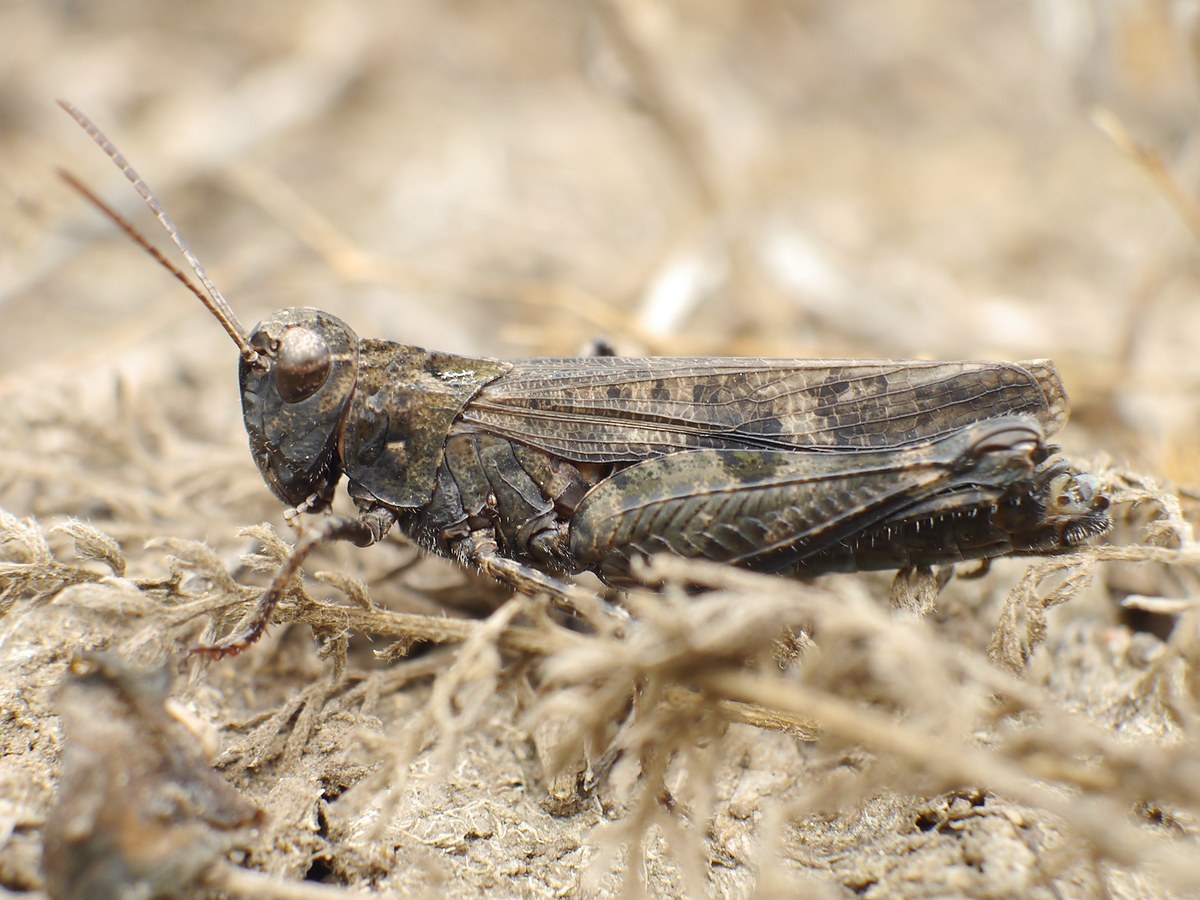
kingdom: Animalia
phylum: Arthropoda
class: Insecta
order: Orthoptera
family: Acrididae
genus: Celes
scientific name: Celes variabilis
